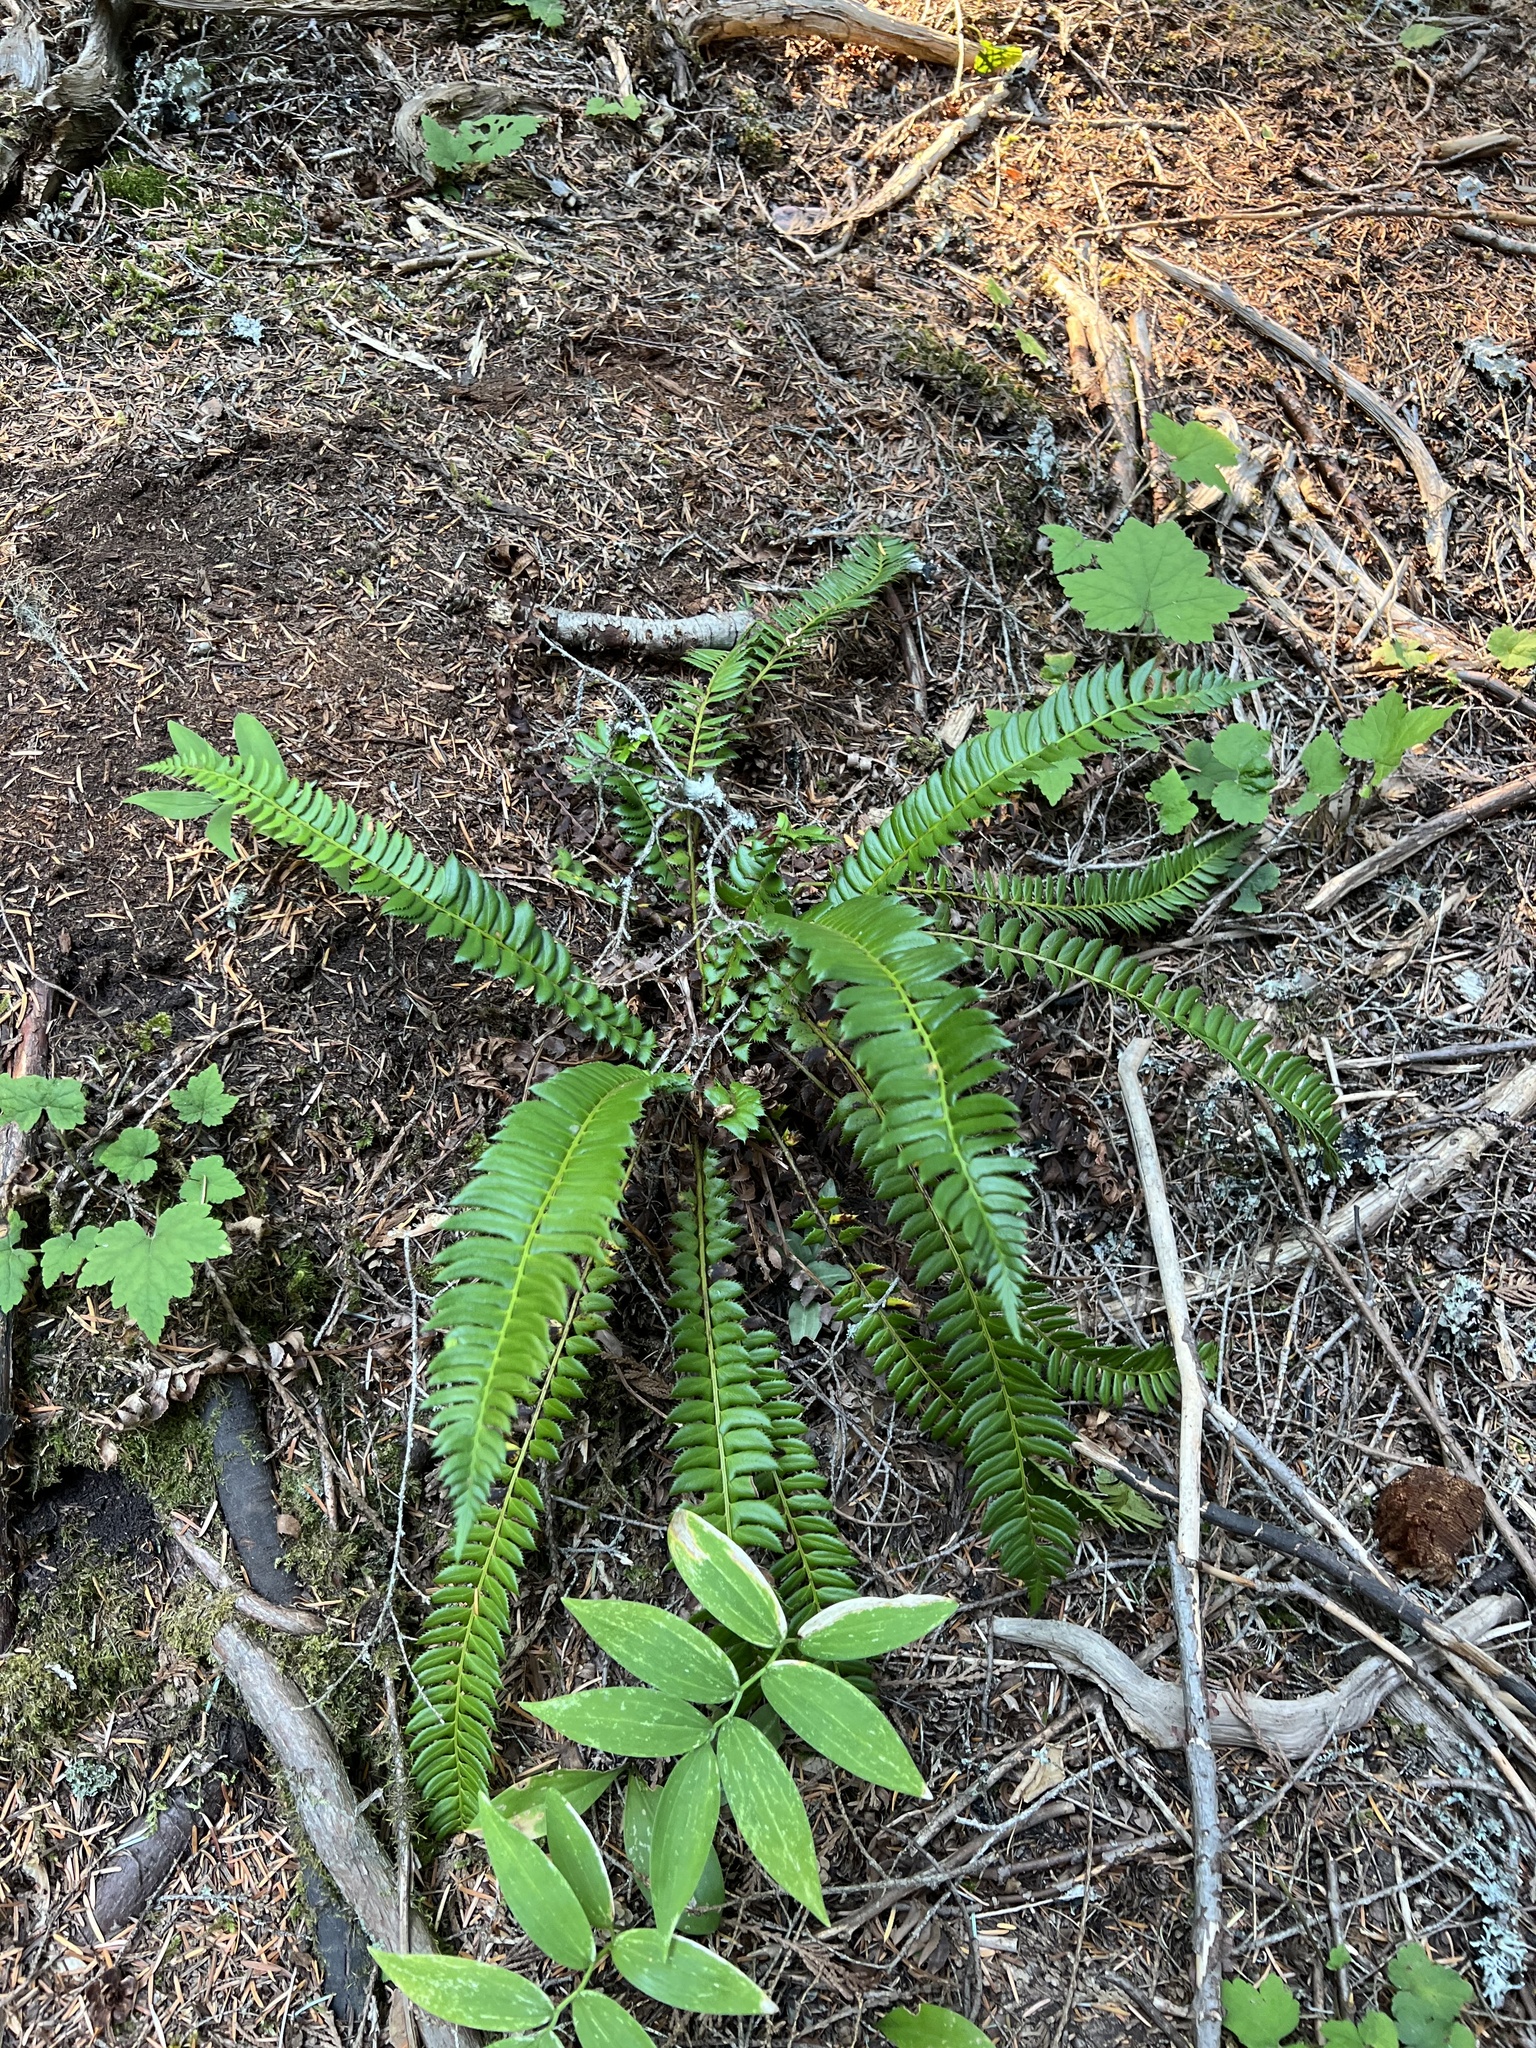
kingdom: Plantae
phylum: Tracheophyta
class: Polypodiopsida
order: Polypodiales
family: Dryopteridaceae
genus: Polystichum
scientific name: Polystichum lonchitis
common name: Holly fern
